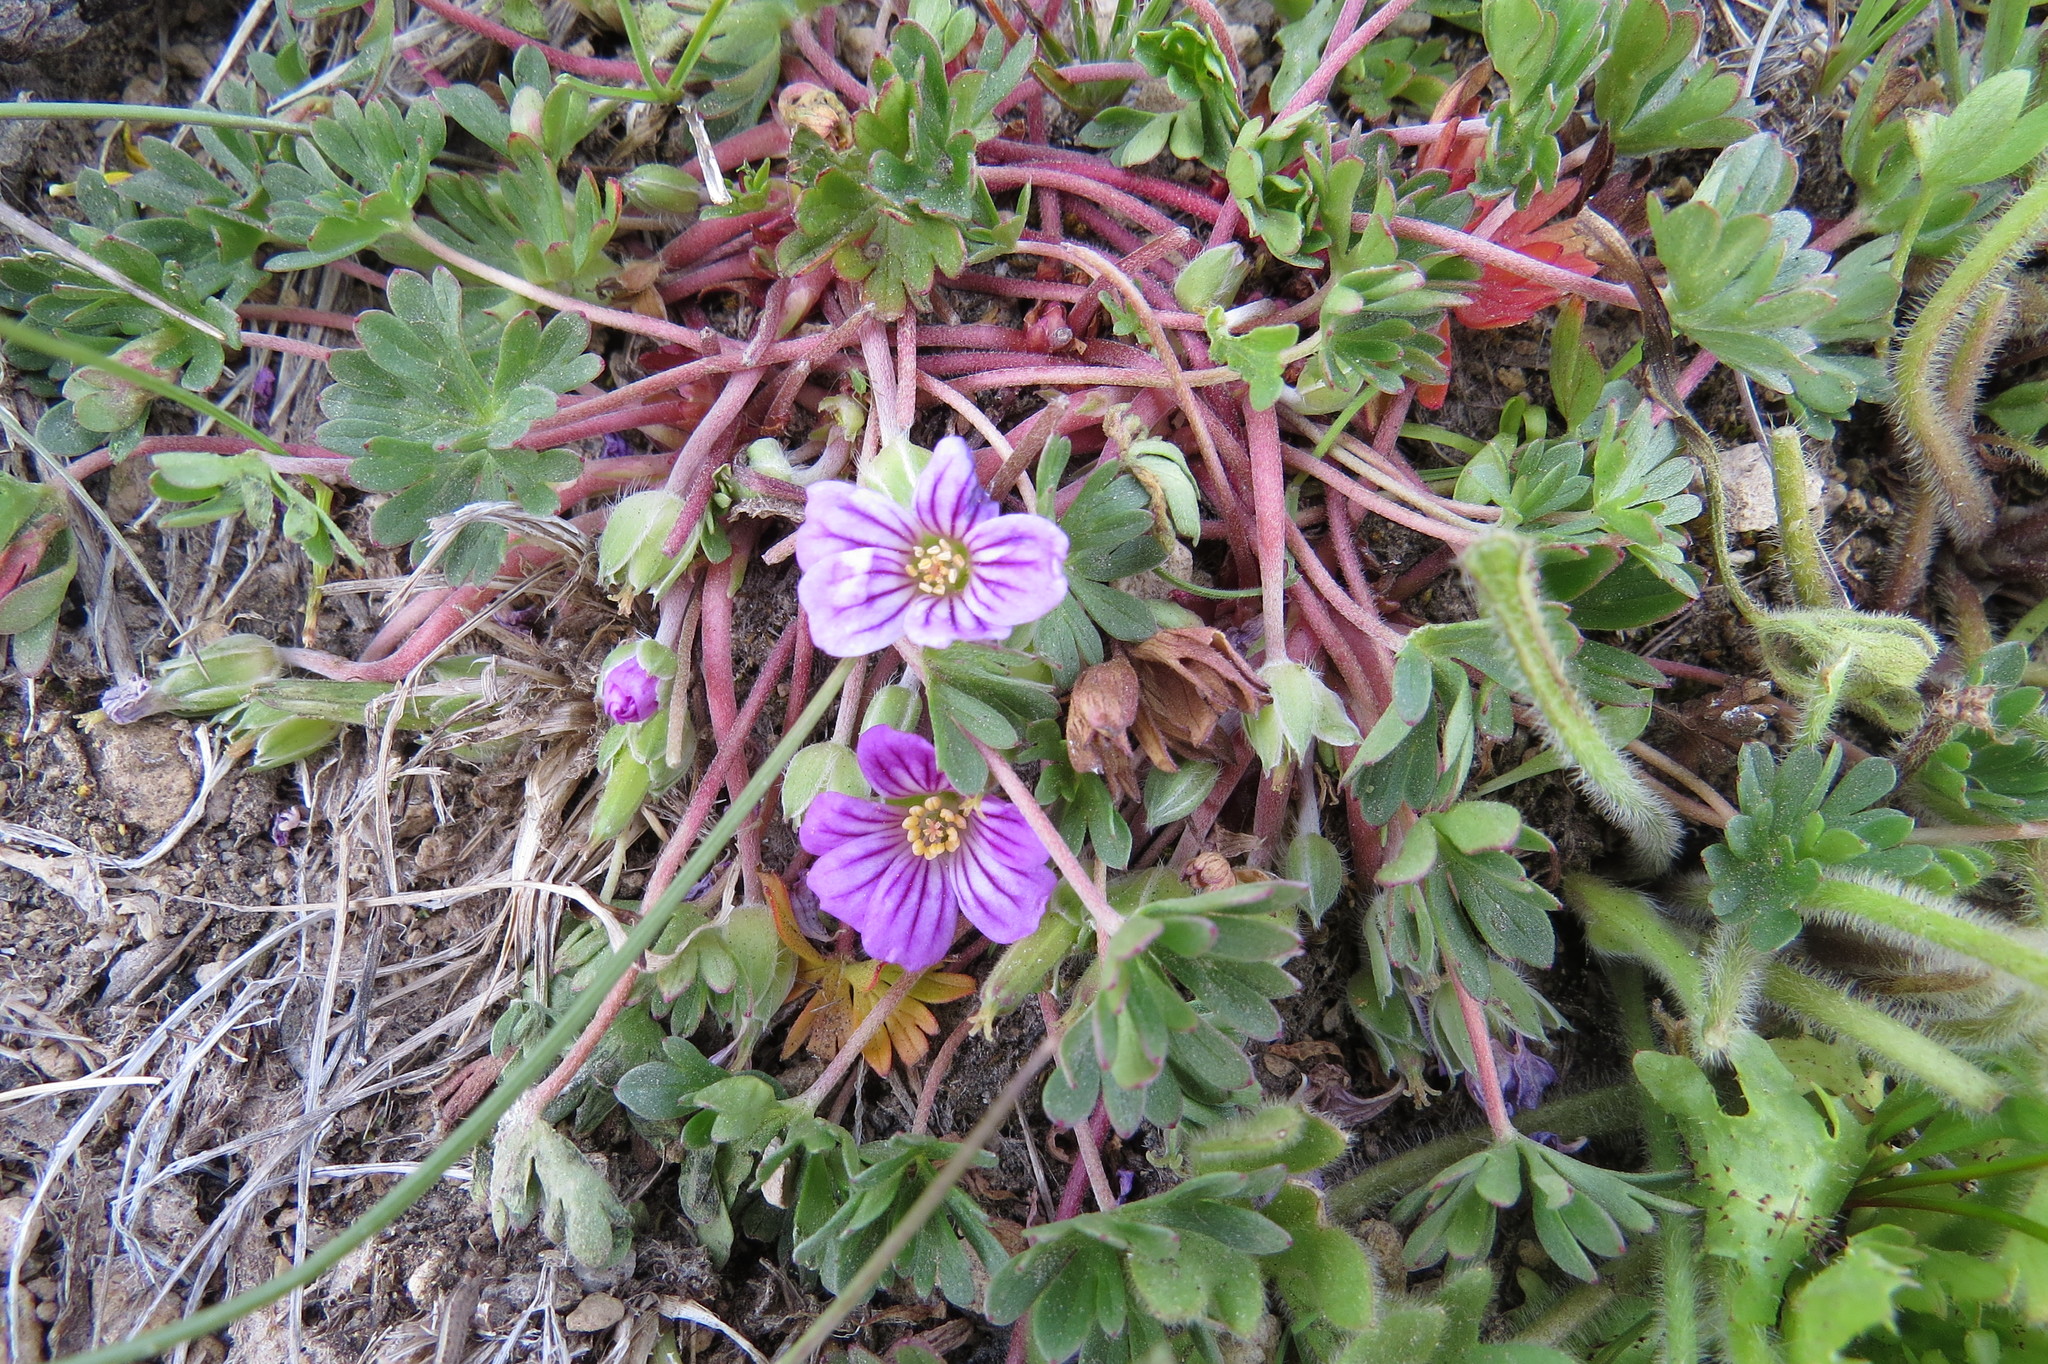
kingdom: Plantae
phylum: Tracheophyta
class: Magnoliopsida
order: Geraniales
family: Geraniaceae
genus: Geranium
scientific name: Geranium sessiliflorum
